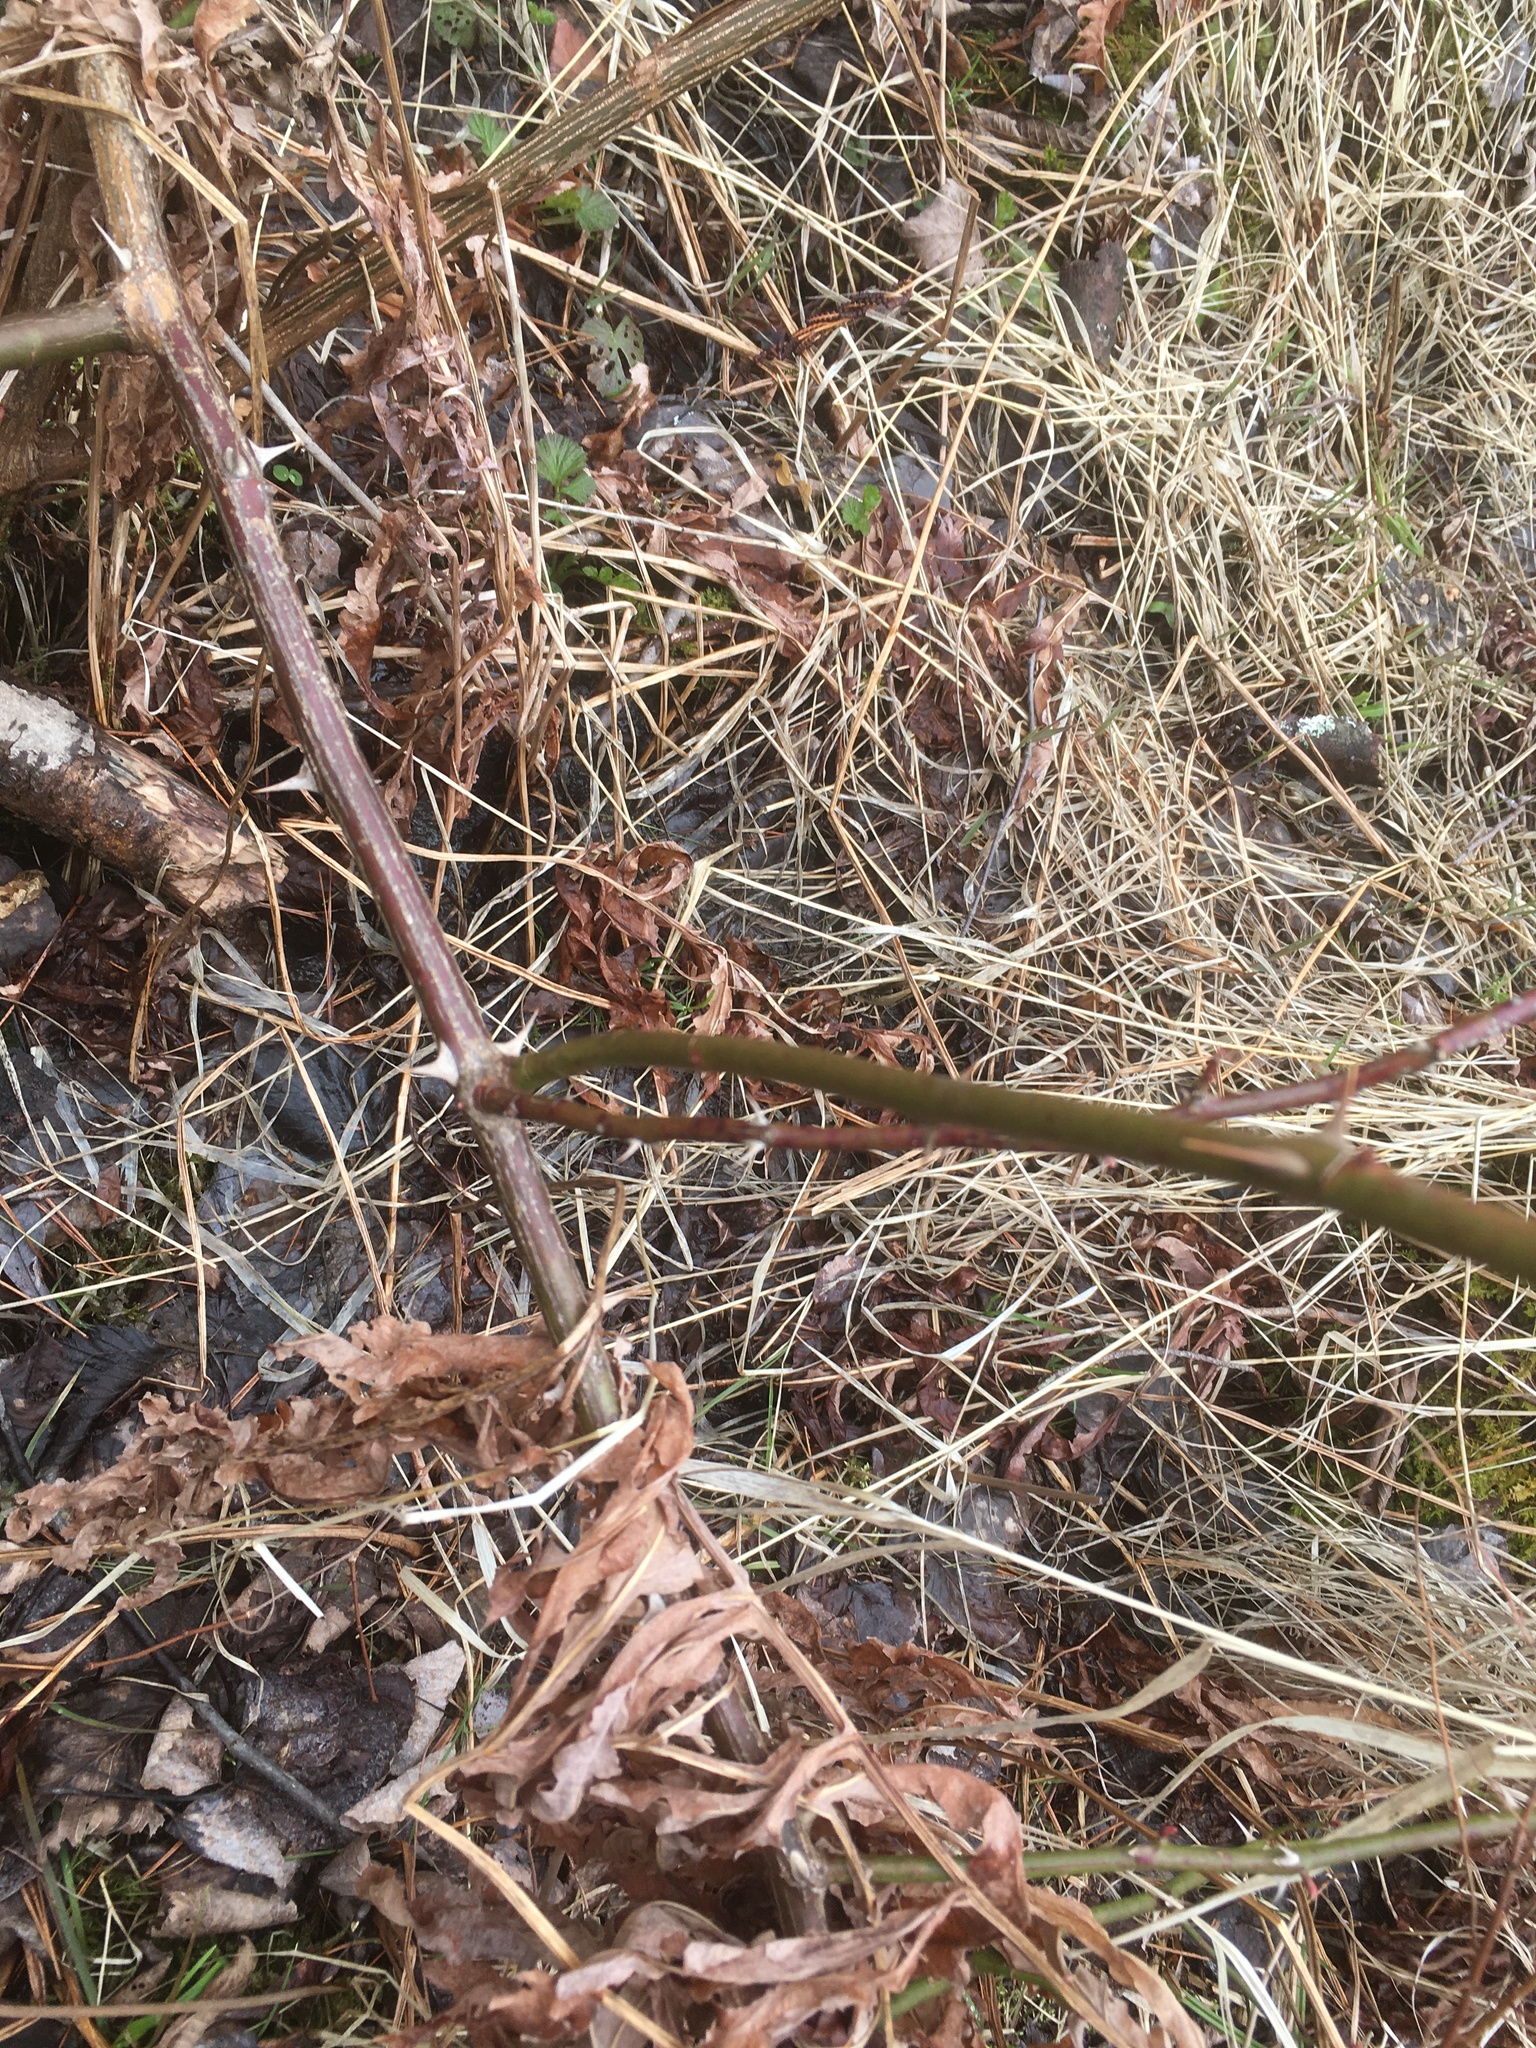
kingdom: Plantae
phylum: Tracheophyta
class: Magnoliopsida
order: Rosales
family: Rosaceae
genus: Rosa
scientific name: Rosa multiflora
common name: Multiflora rose
